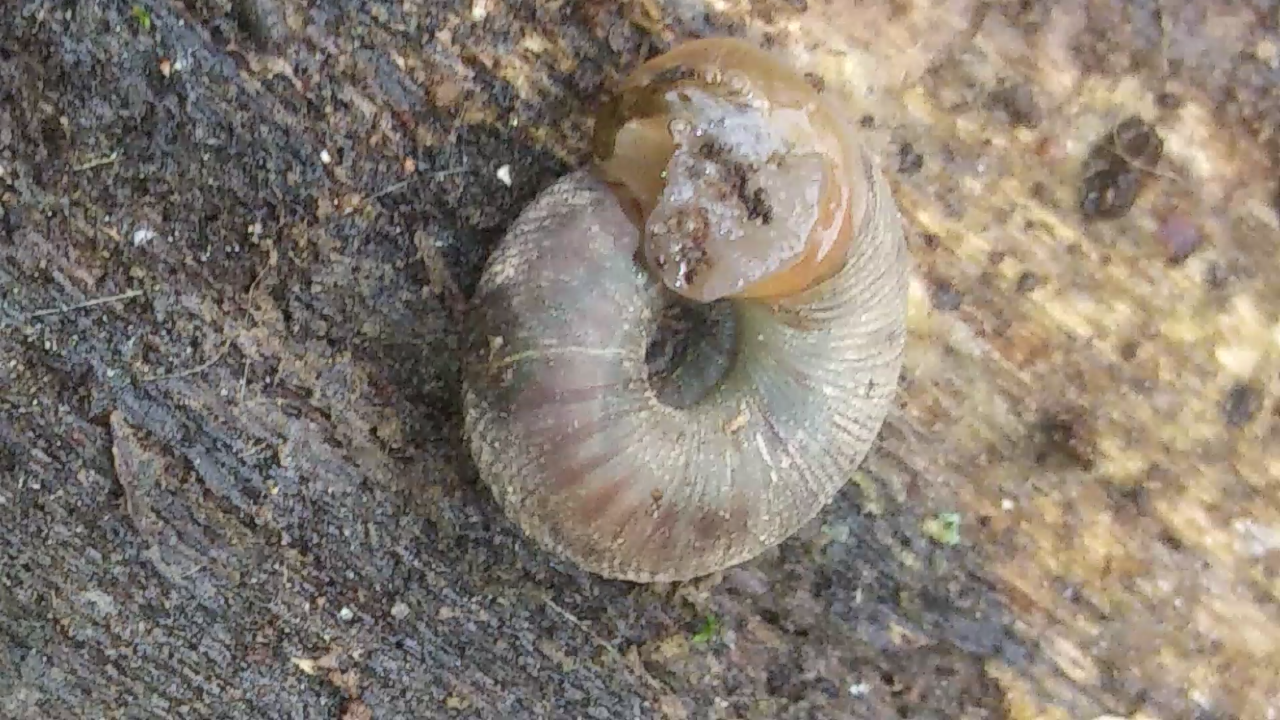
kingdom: Animalia
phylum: Mollusca
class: Gastropoda
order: Stylommatophora
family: Discidae
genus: Anguispira
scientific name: Anguispira alternata
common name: Flamed tigersnail
